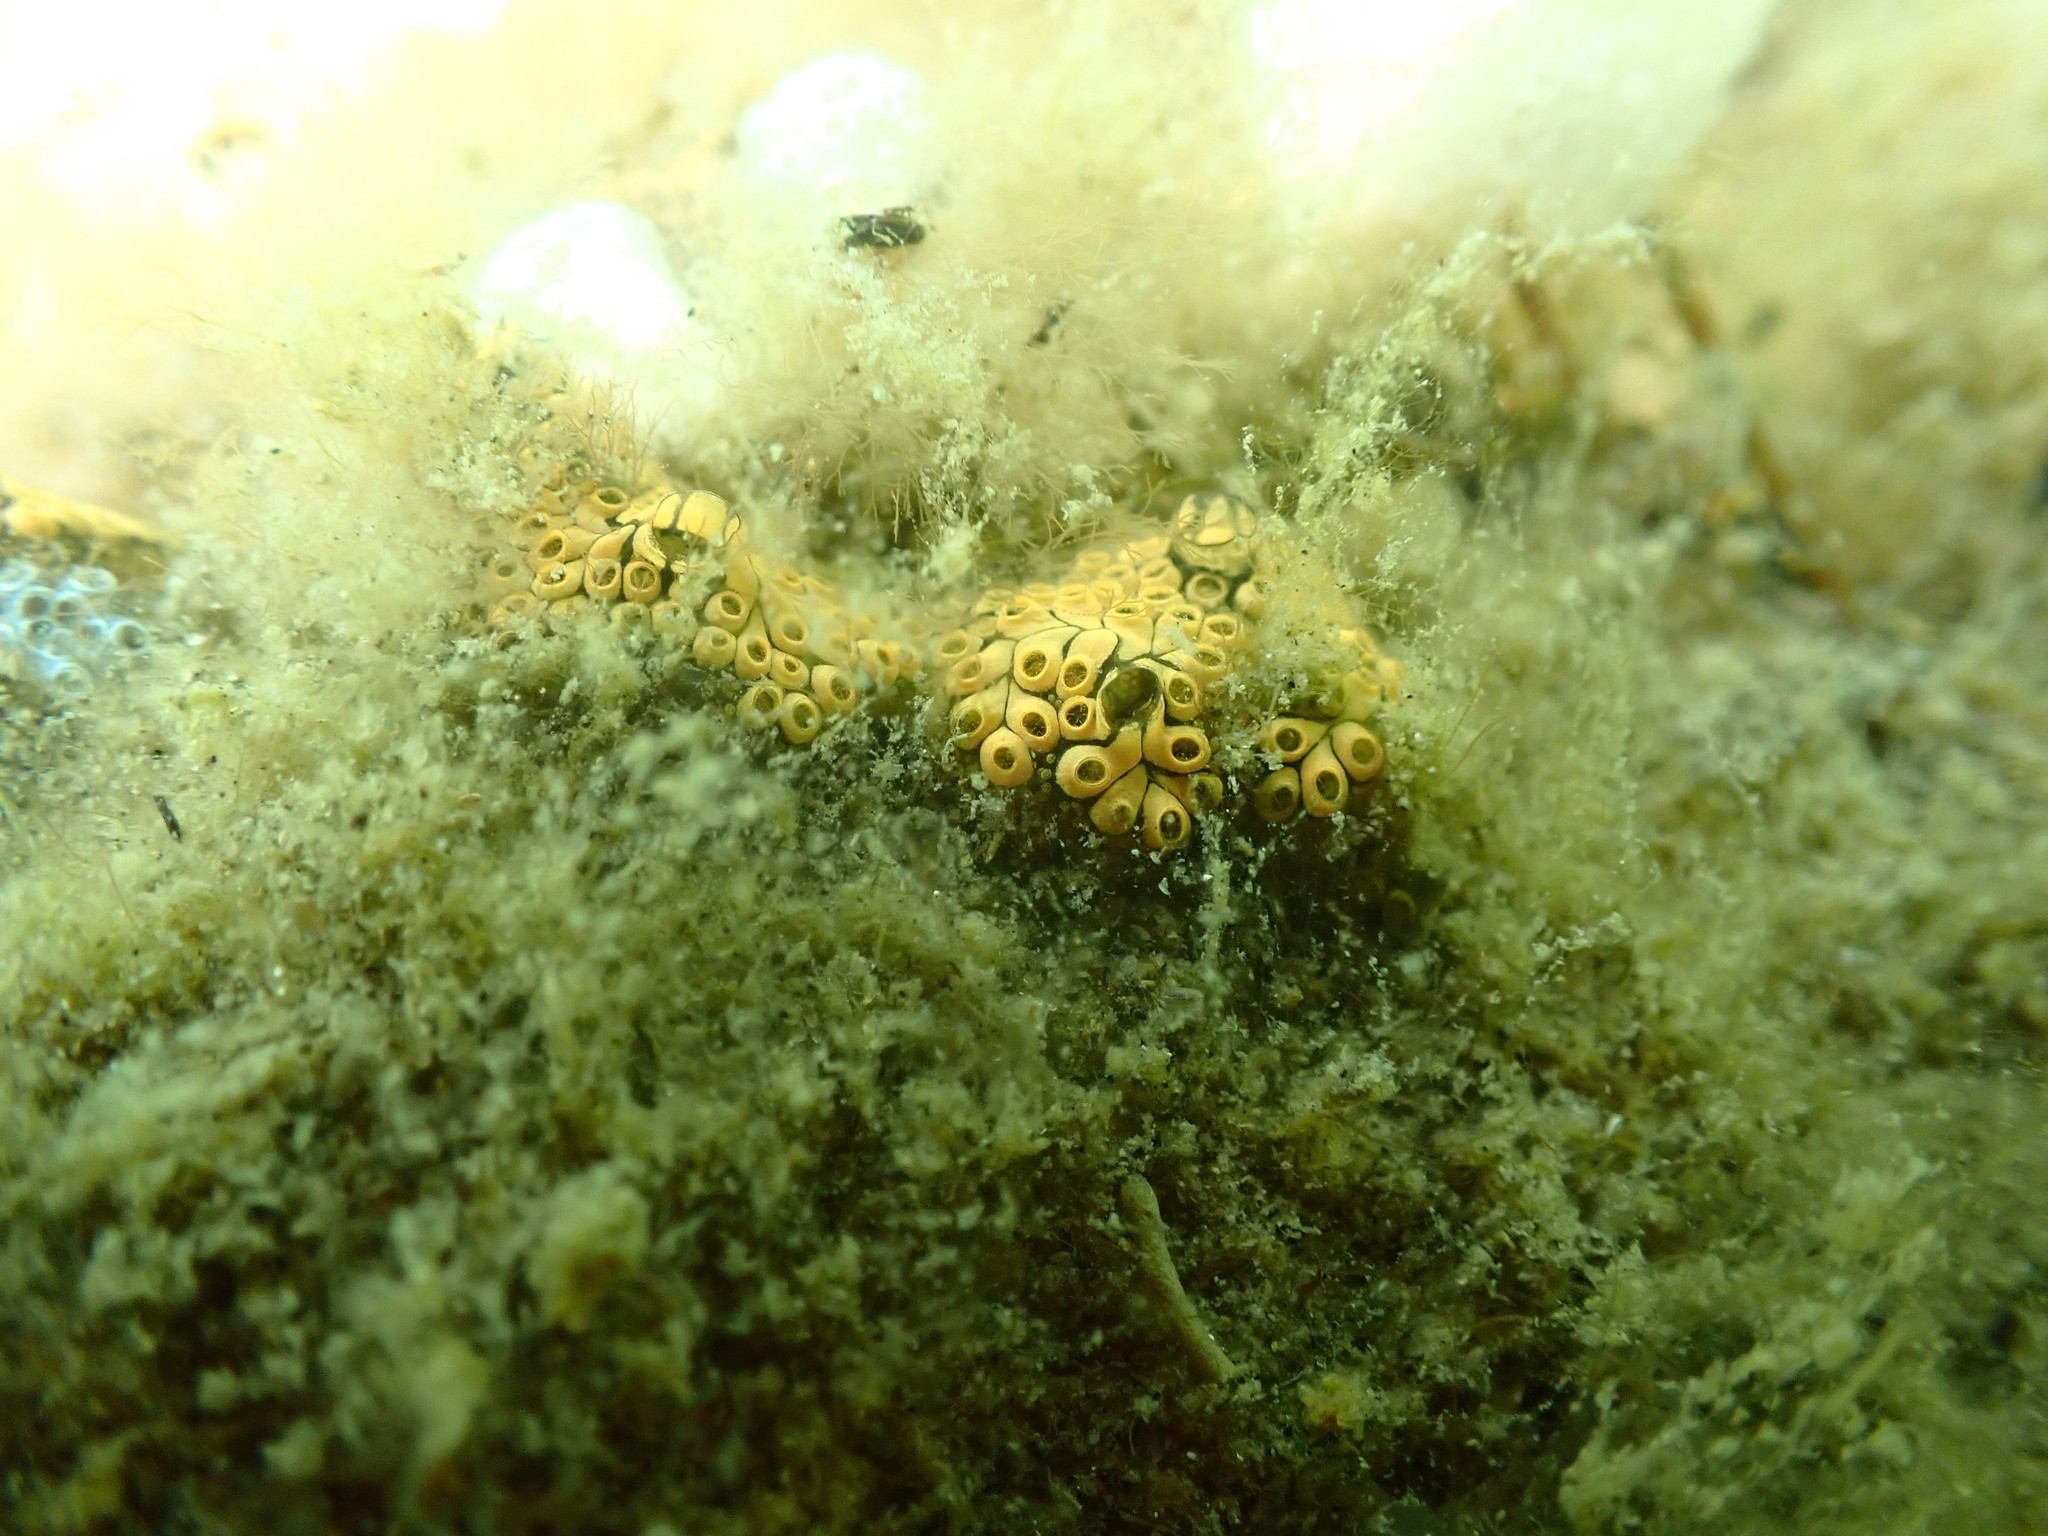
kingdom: Animalia
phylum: Chordata
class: Ascidiacea
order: Stolidobranchia
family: Styelidae
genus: Botrylloides
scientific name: Botrylloides diegensis
